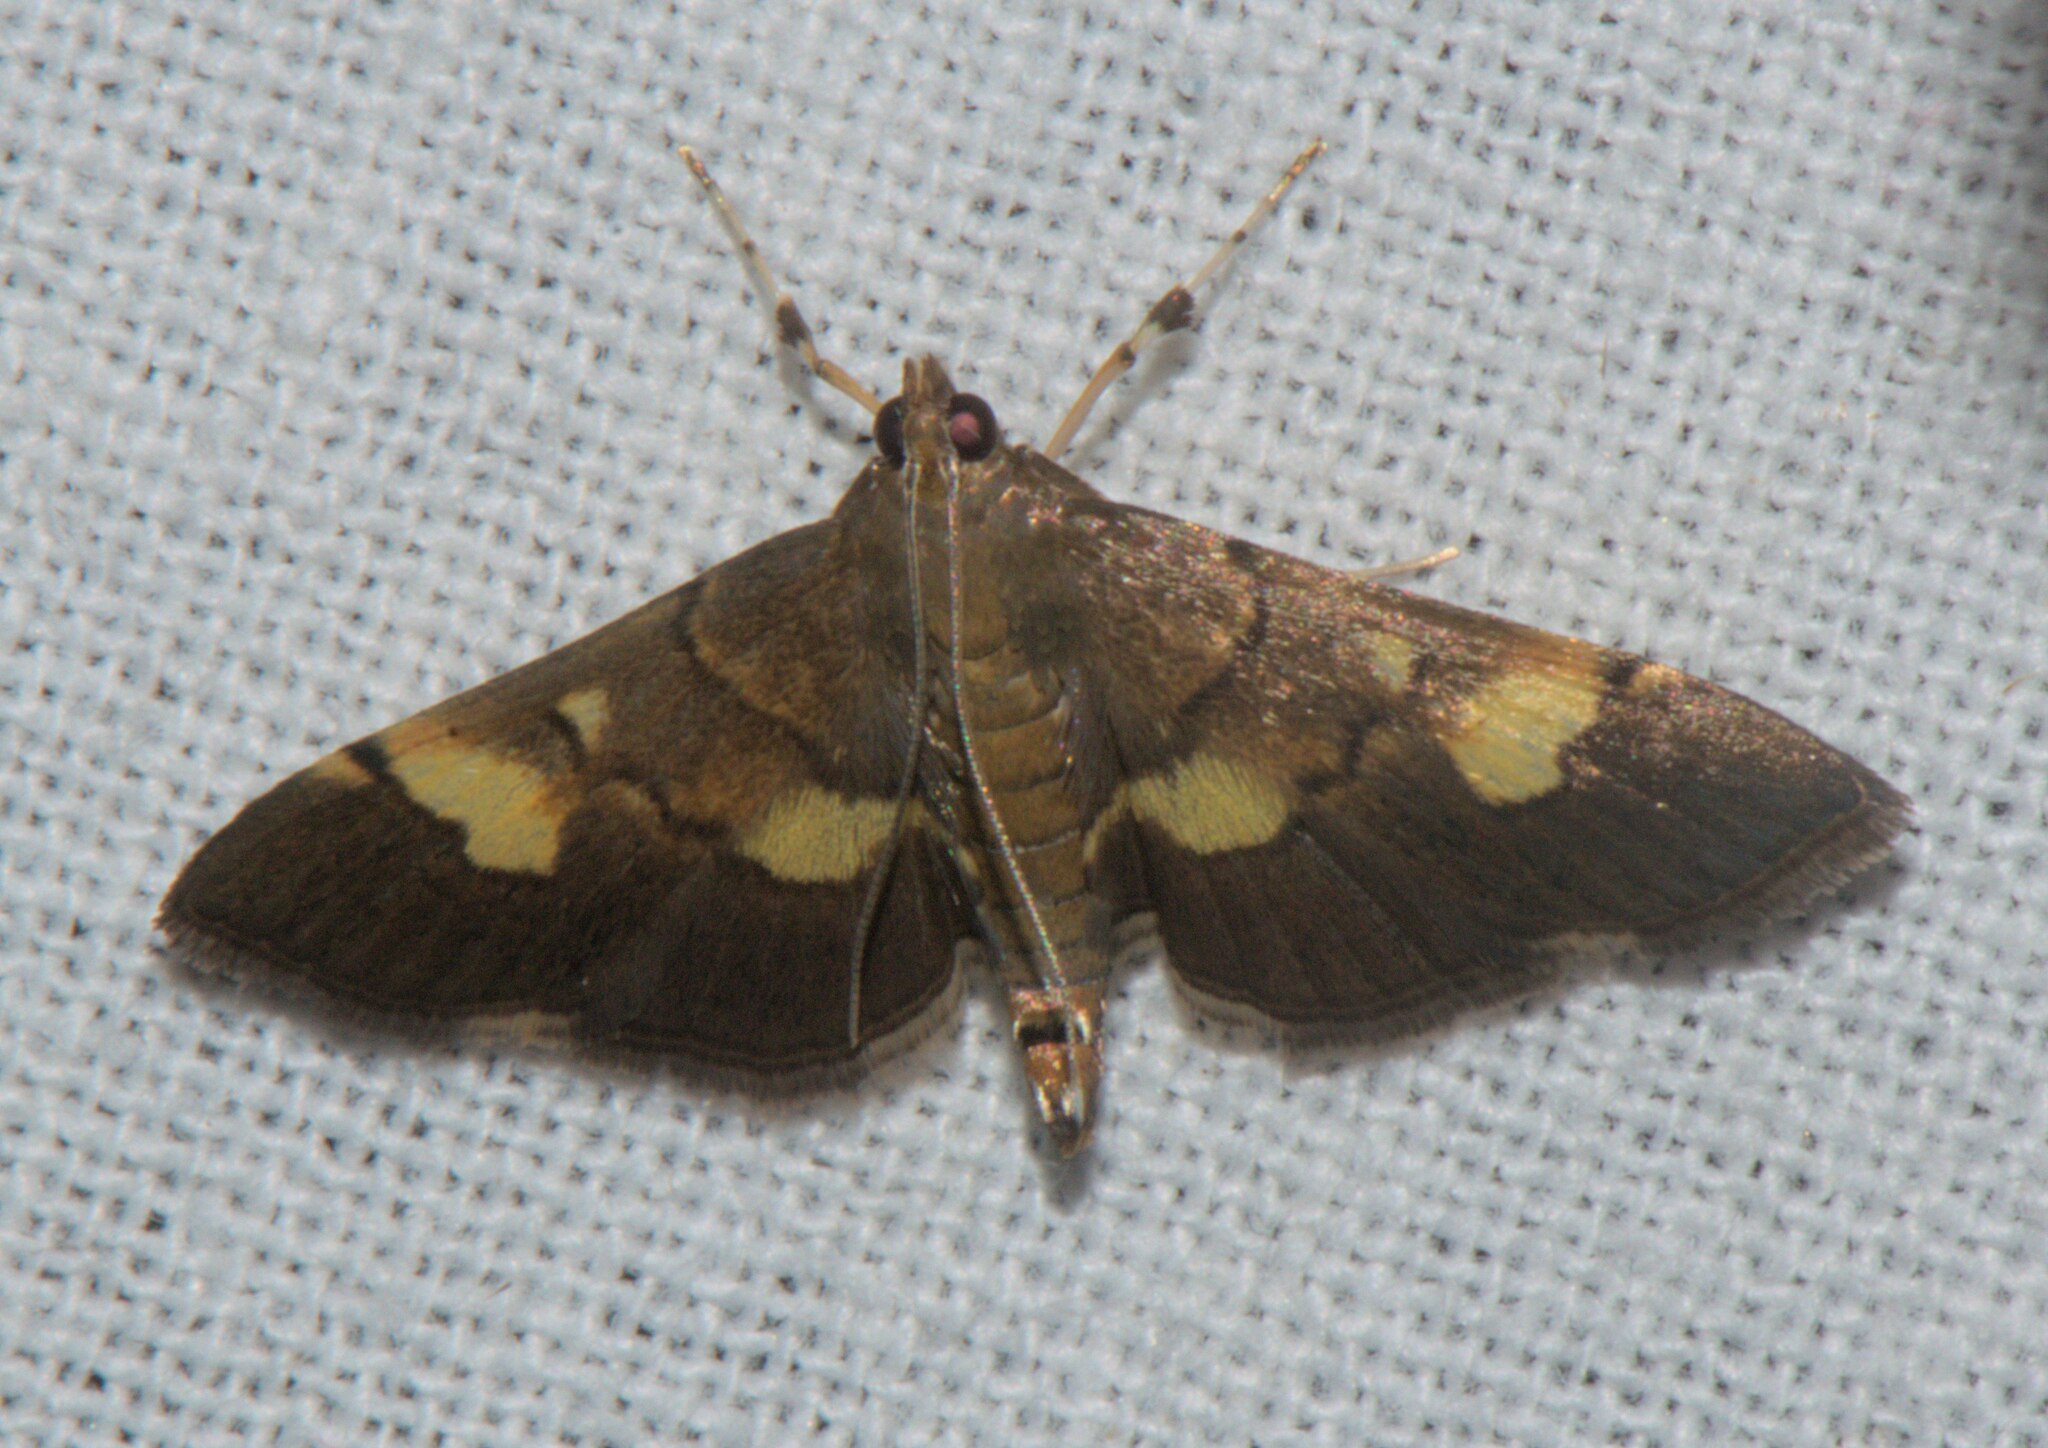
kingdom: Animalia
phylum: Arthropoda
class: Insecta
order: Lepidoptera
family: Crambidae
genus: Syngamia
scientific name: Syngamia falsidicalis
